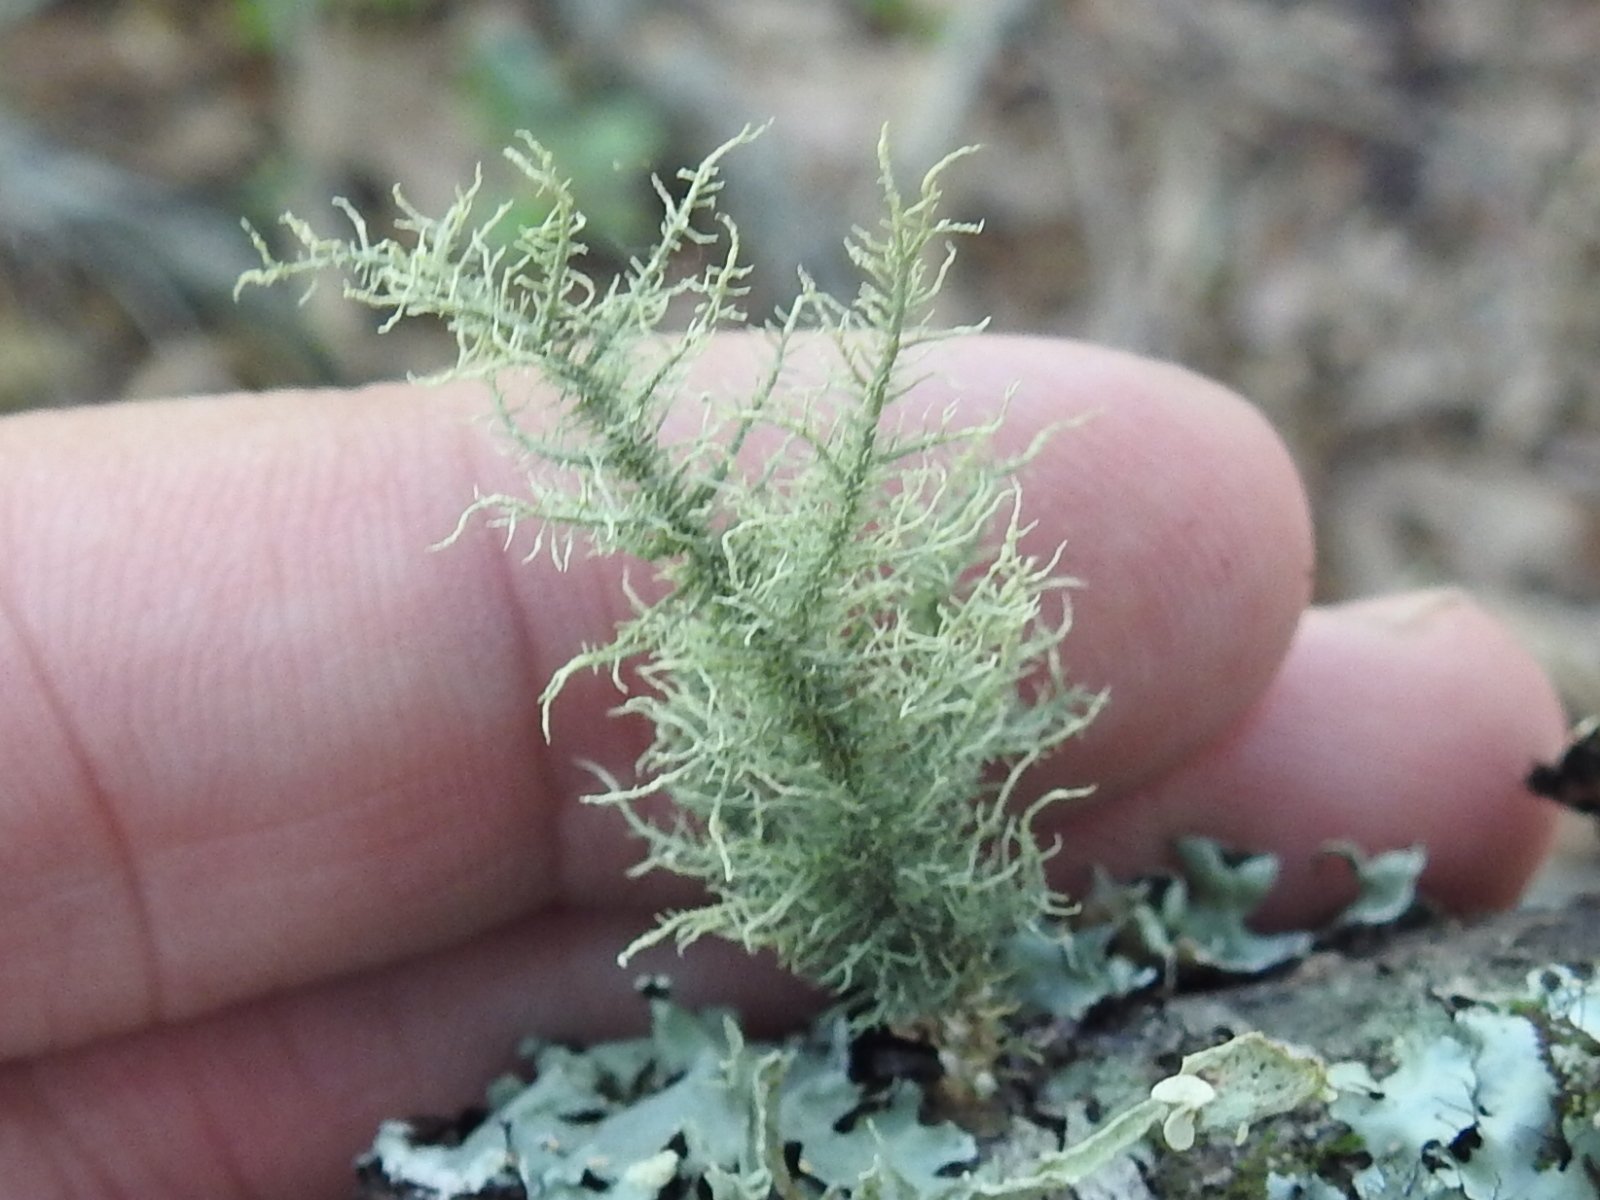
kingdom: Fungi
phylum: Ascomycota
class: Lecanoromycetes
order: Lecanorales
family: Parmeliaceae
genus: Usnea
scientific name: Usnea strigosa
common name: Bushy beard lichen
